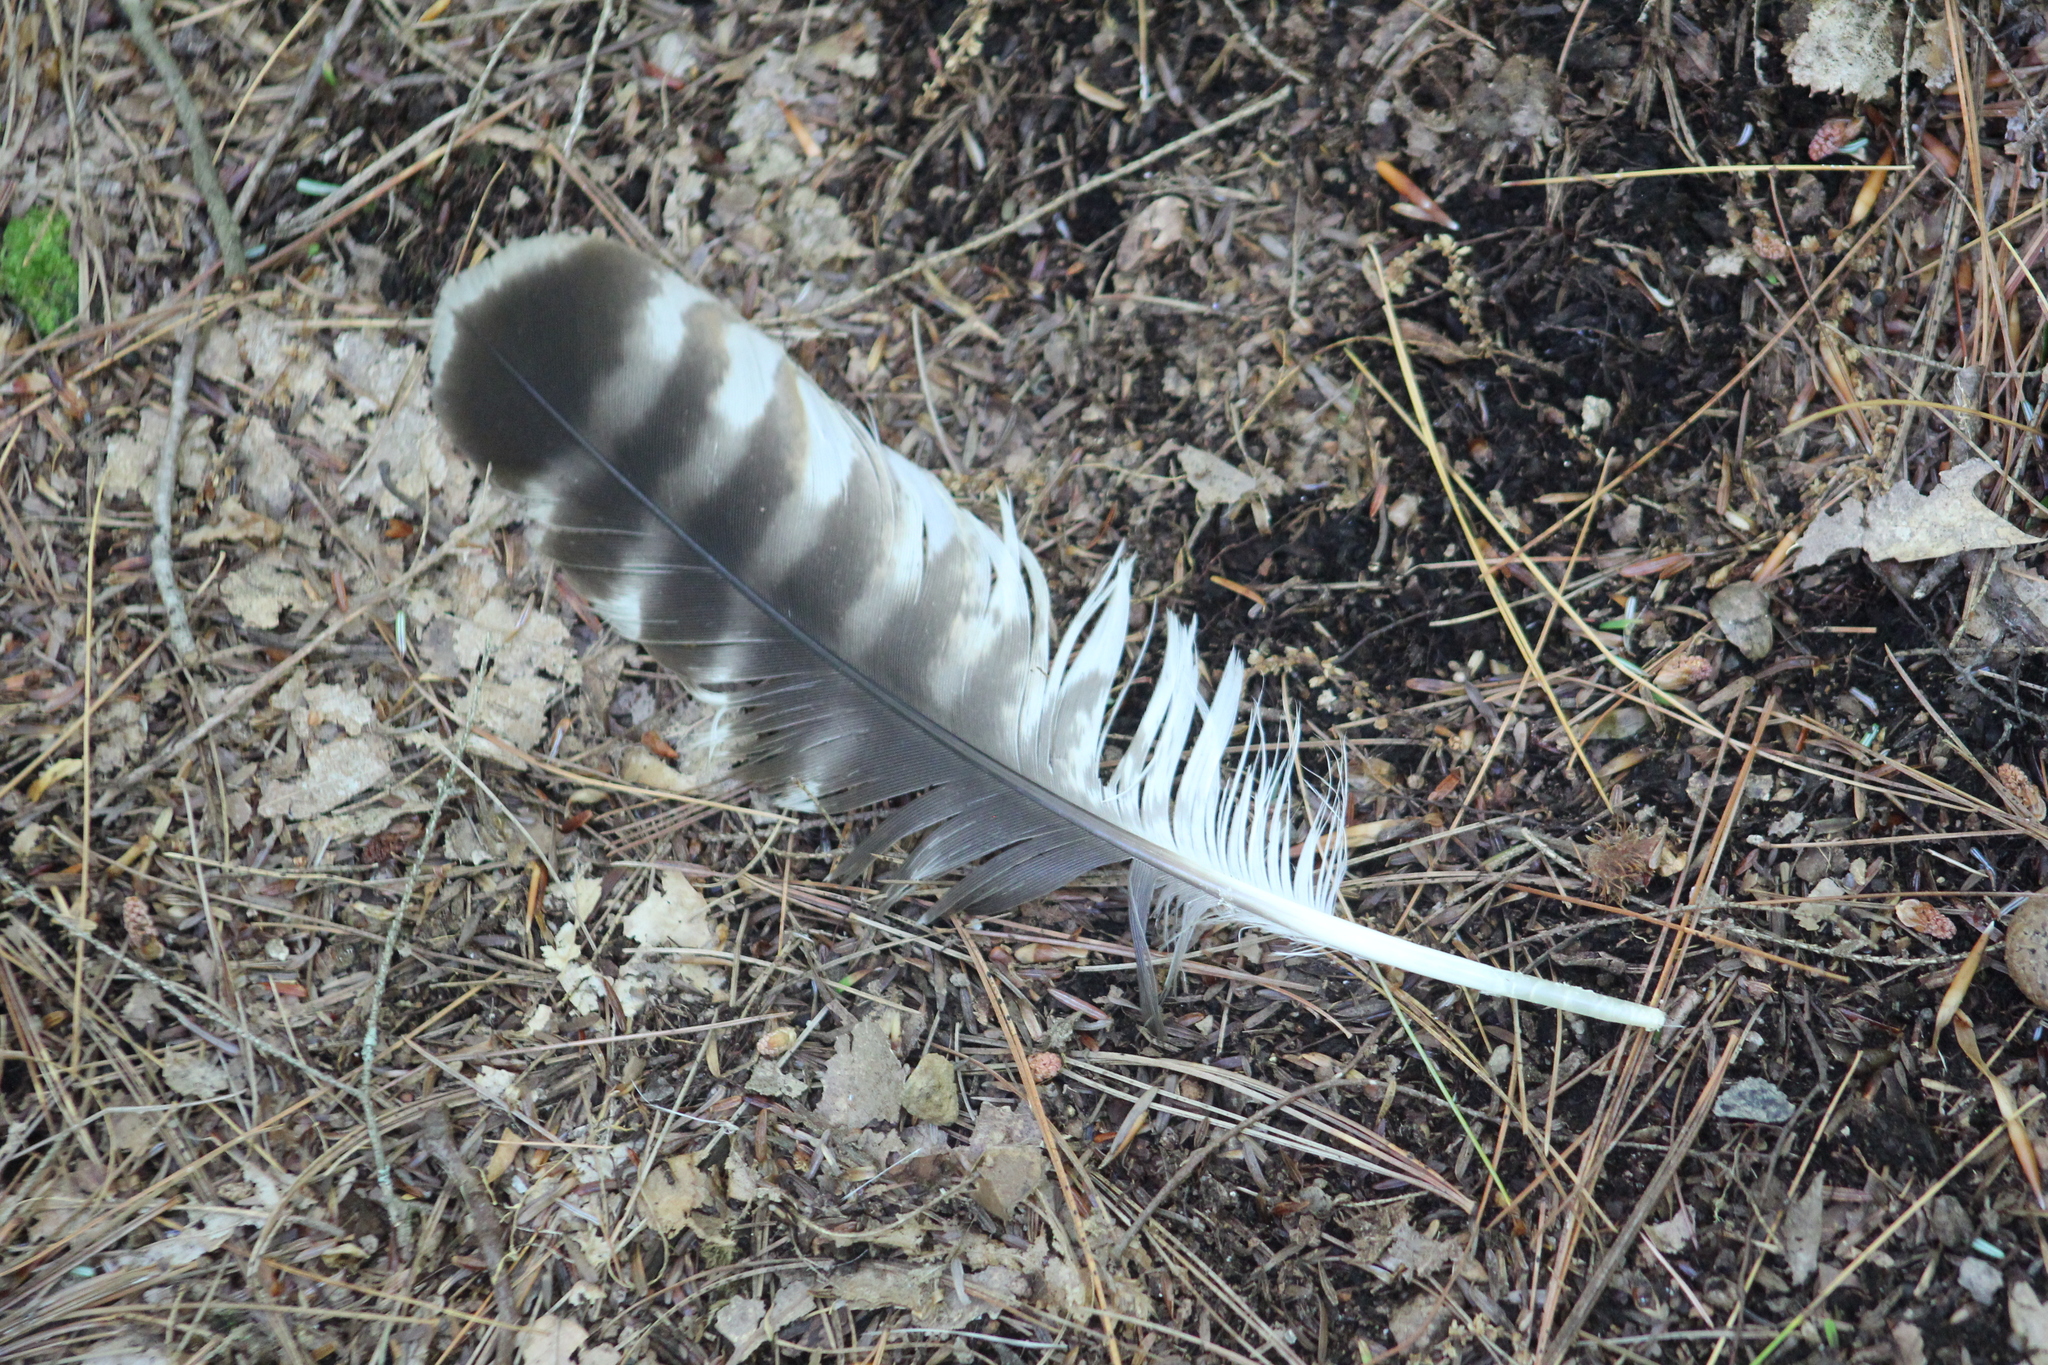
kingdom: Animalia
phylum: Chordata
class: Aves
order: Accipitriformes
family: Accipitridae
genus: Buteo
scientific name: Buteo lineatus
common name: Red-shouldered hawk
